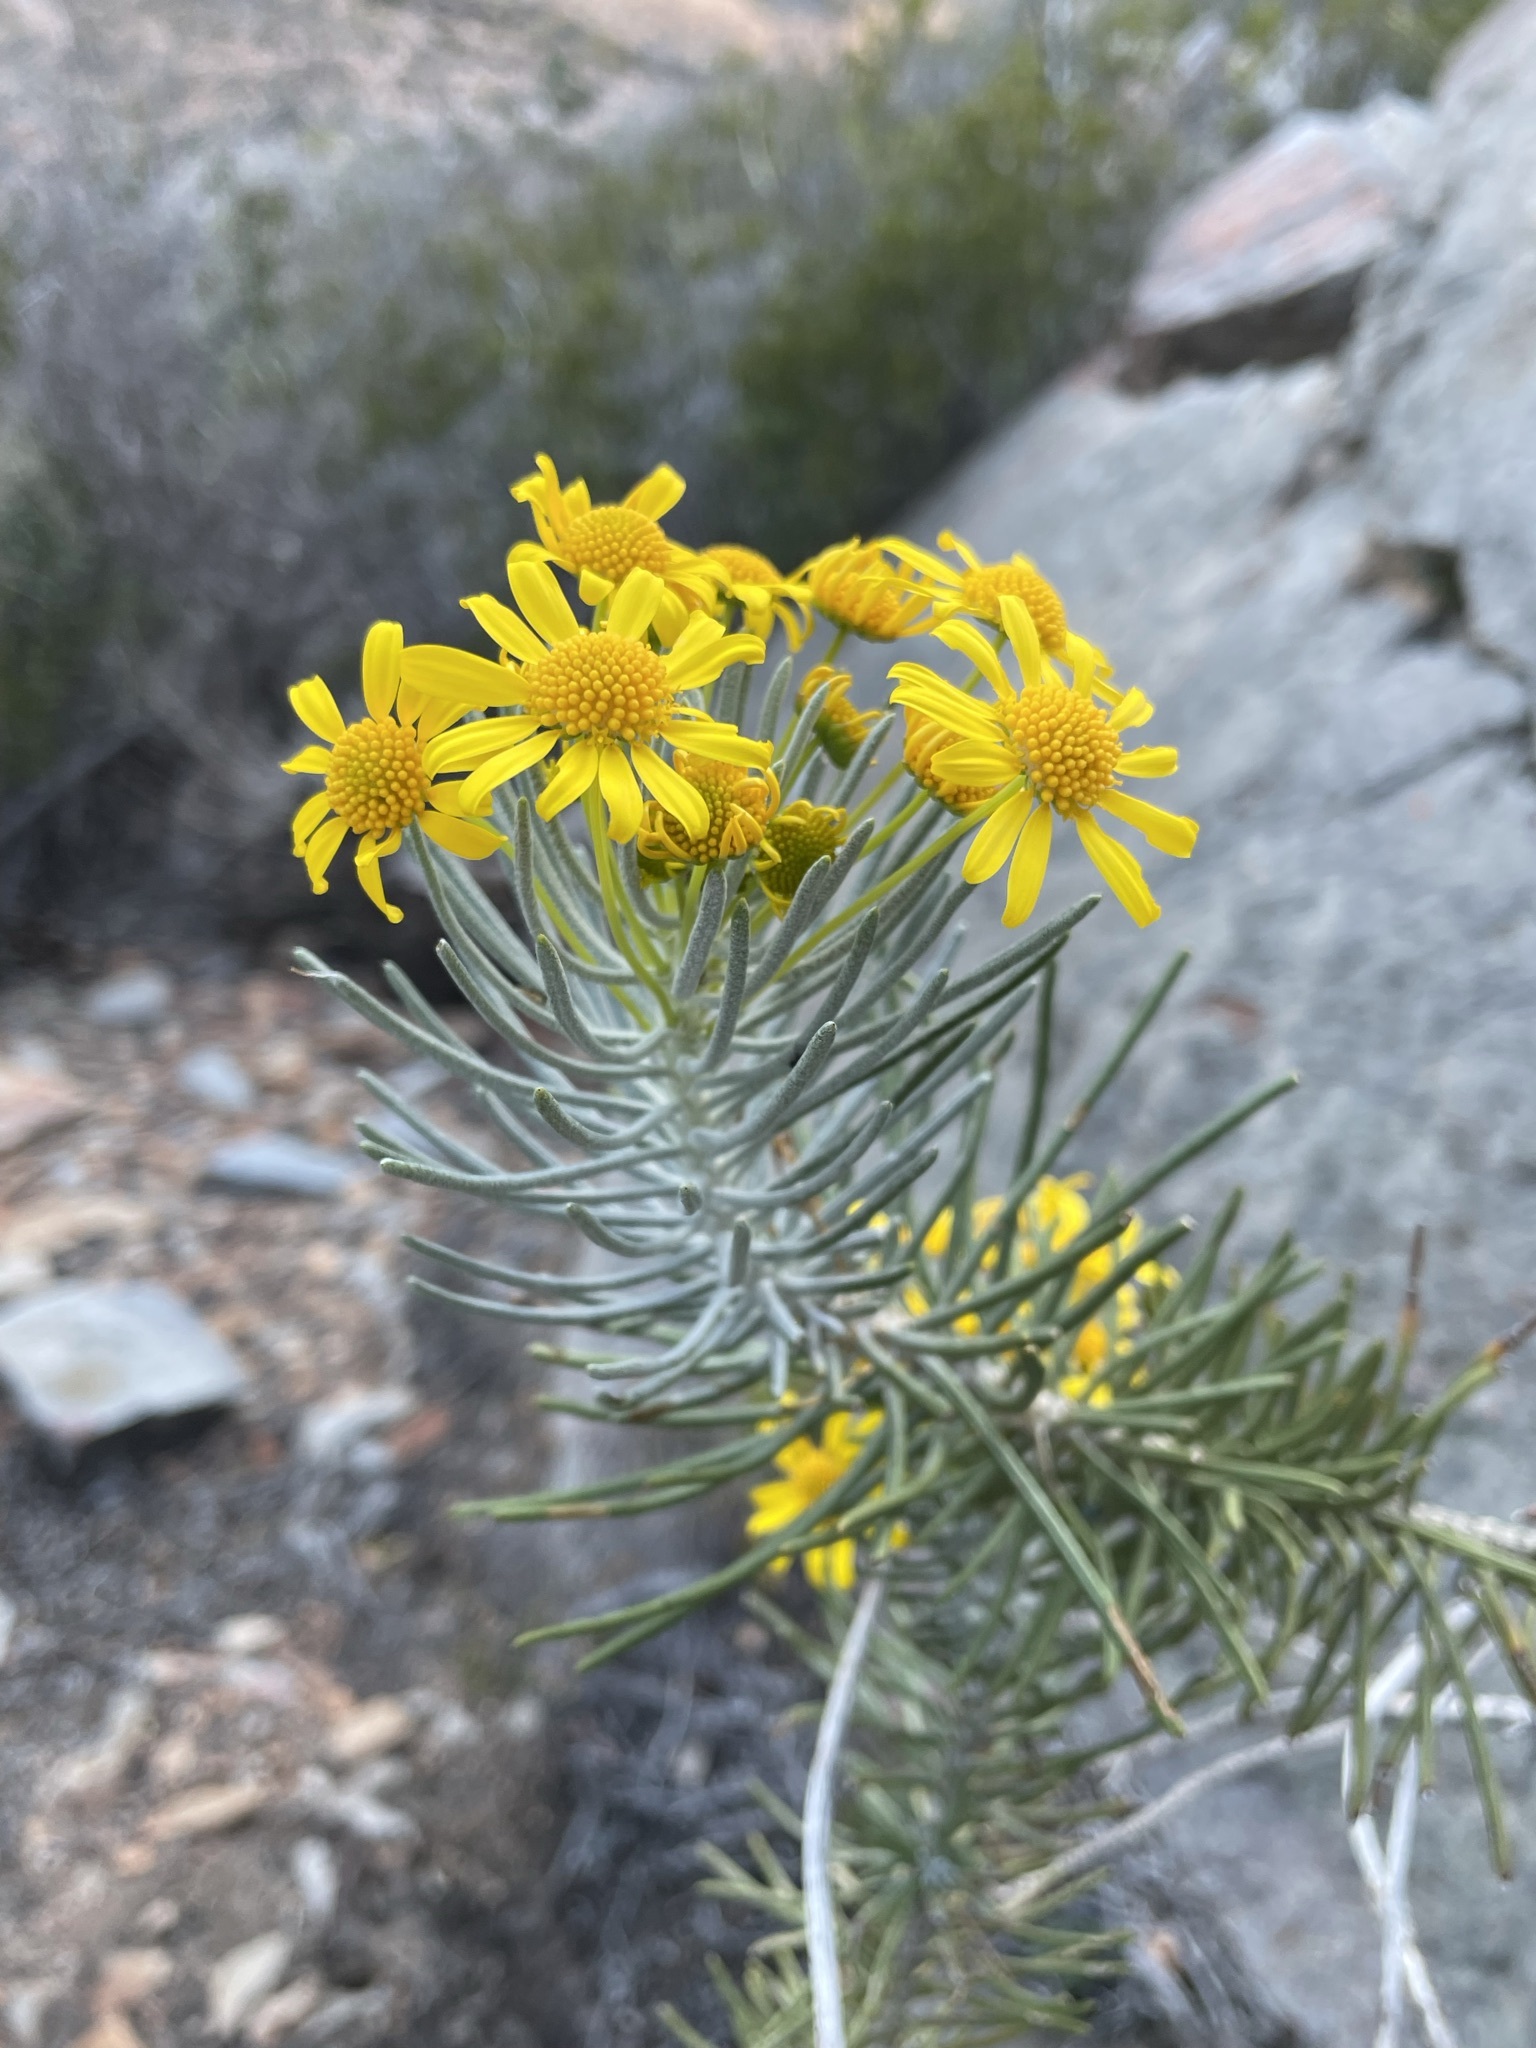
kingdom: Plantae
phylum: Tracheophyta
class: Magnoliopsida
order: Asterales
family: Asteraceae
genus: Euryops
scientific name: Euryops tenuissimus
